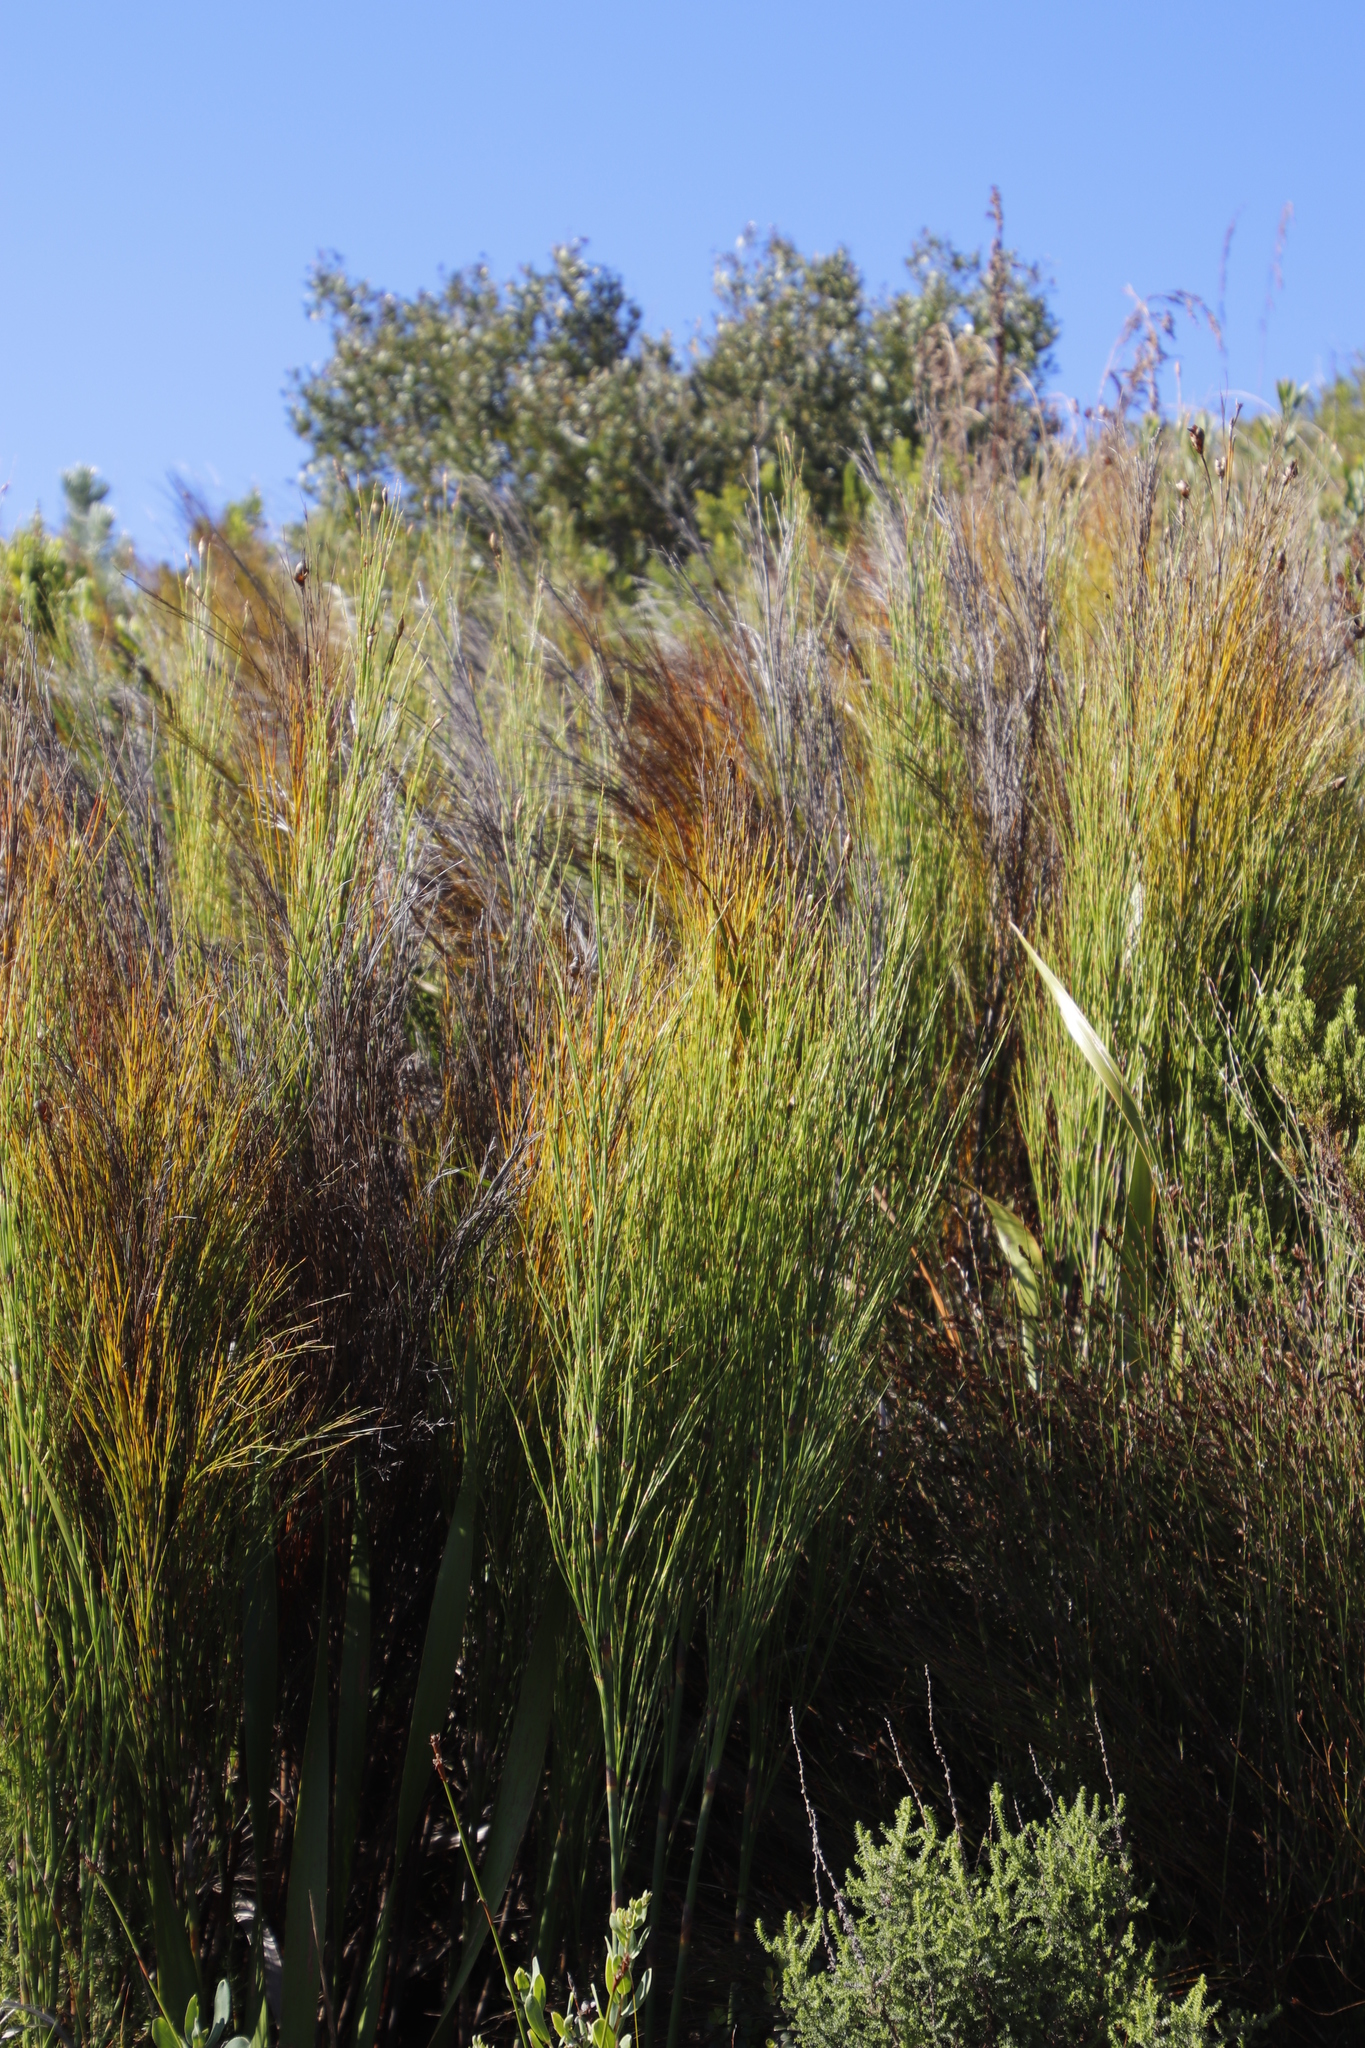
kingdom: Plantae
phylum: Tracheophyta
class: Liliopsida
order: Poales
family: Restionaceae
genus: Cannomois
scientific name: Cannomois virgata
